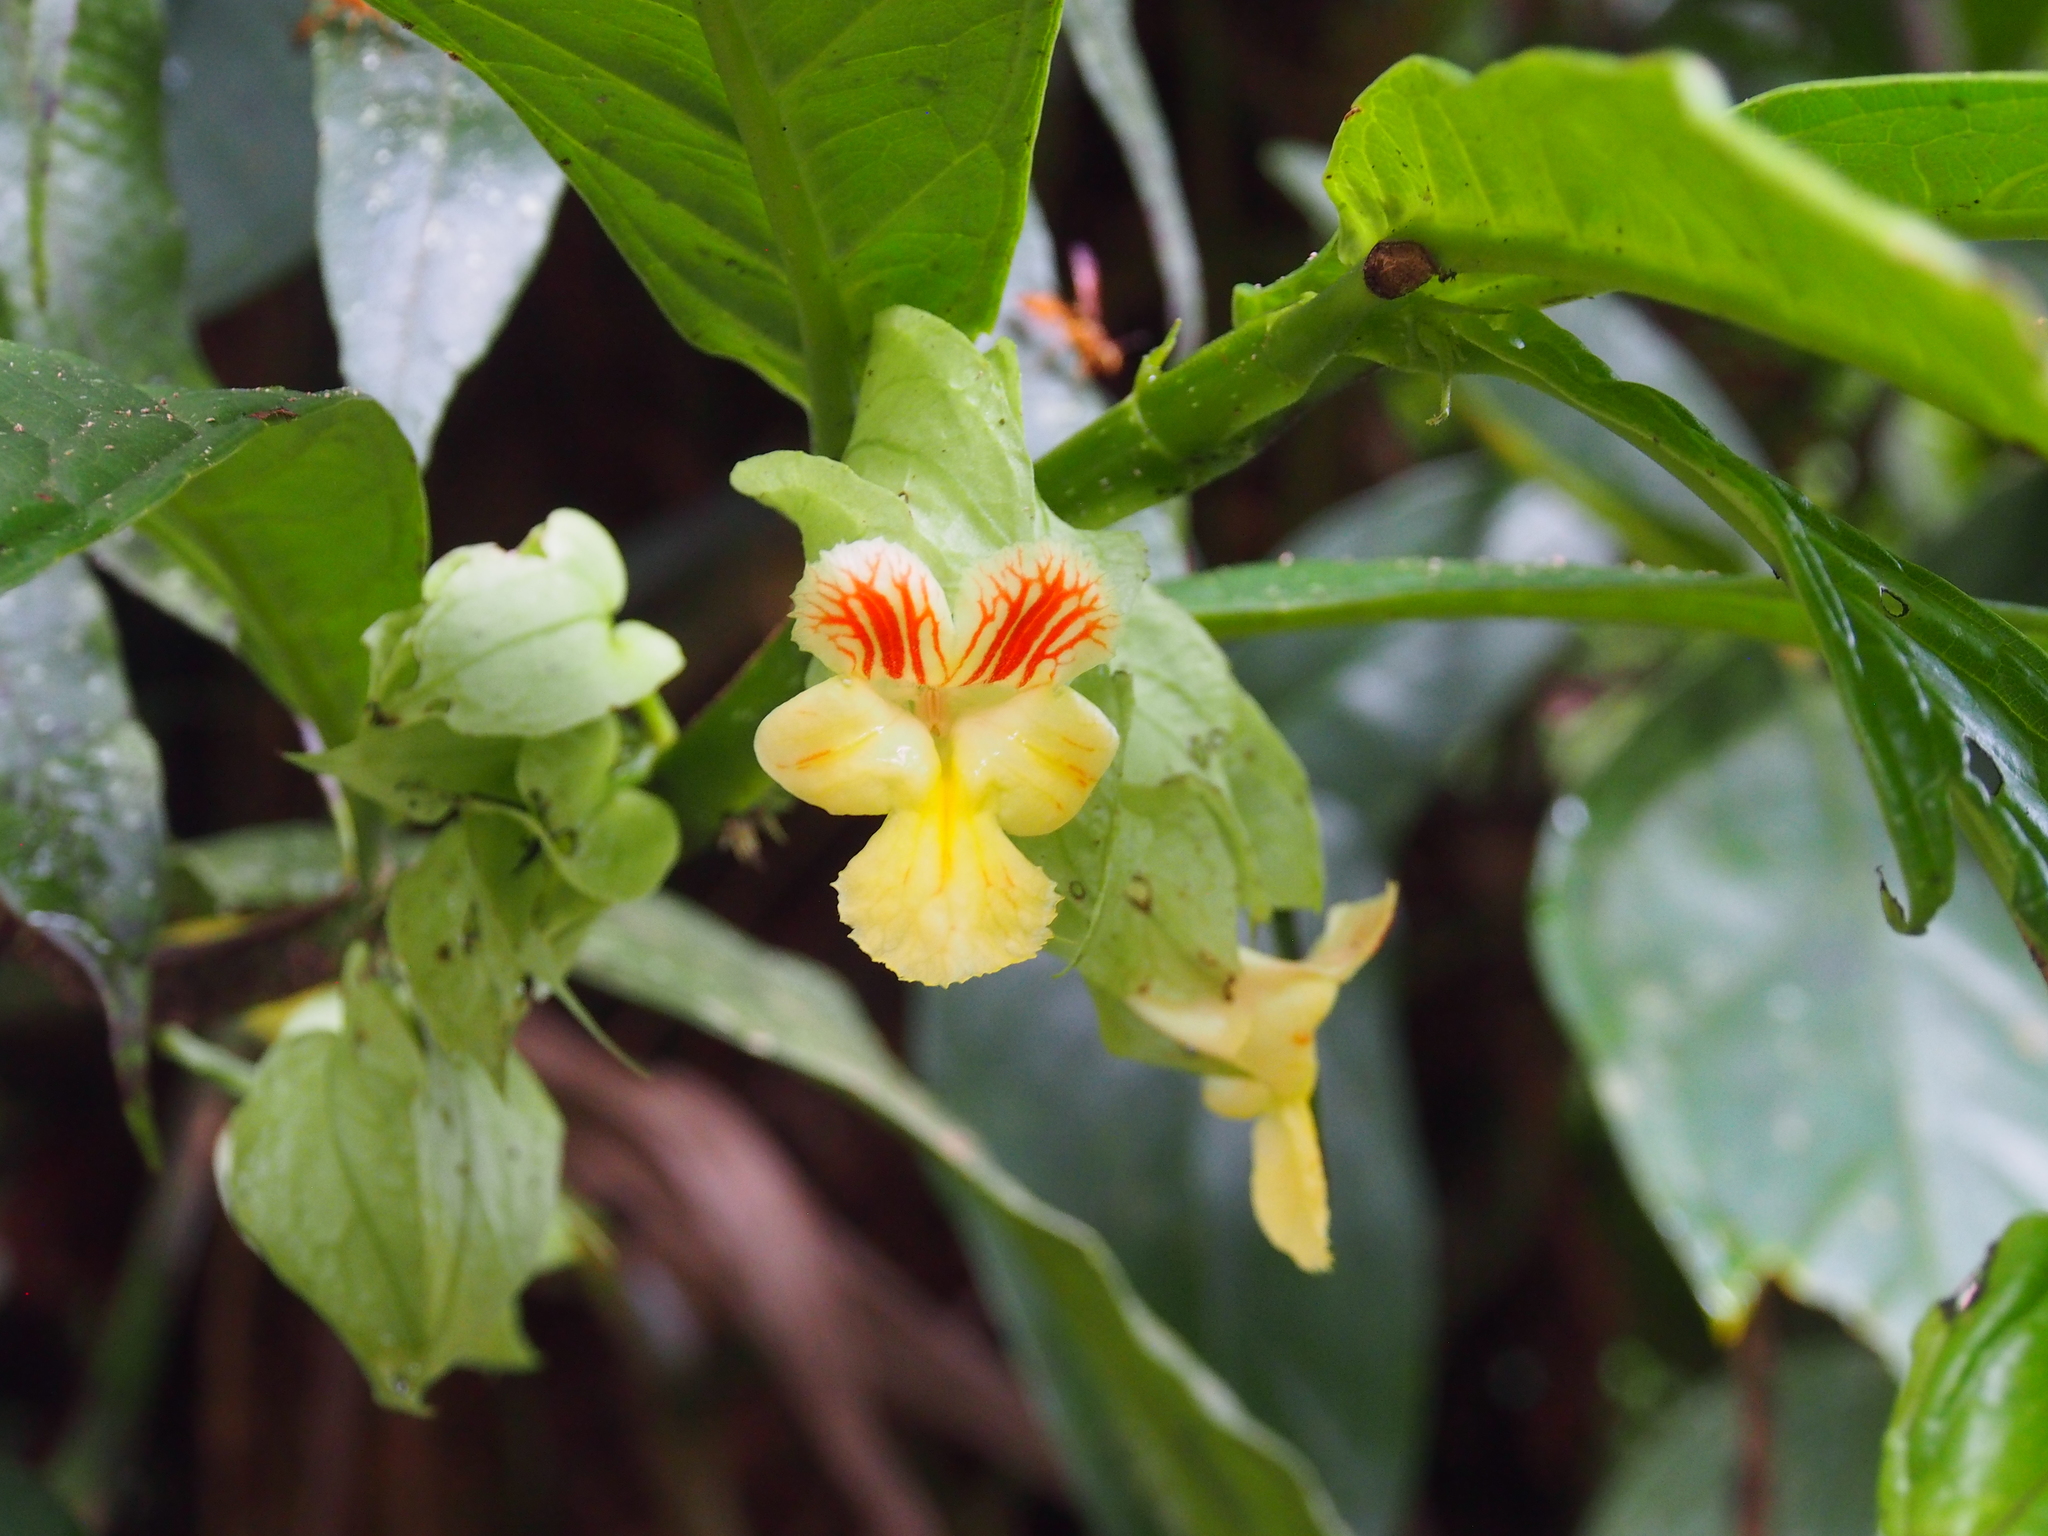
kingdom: Plantae
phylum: Tracheophyta
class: Magnoliopsida
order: Lamiales
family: Gesneriaceae
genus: Drymonia
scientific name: Drymonia submarginalis
